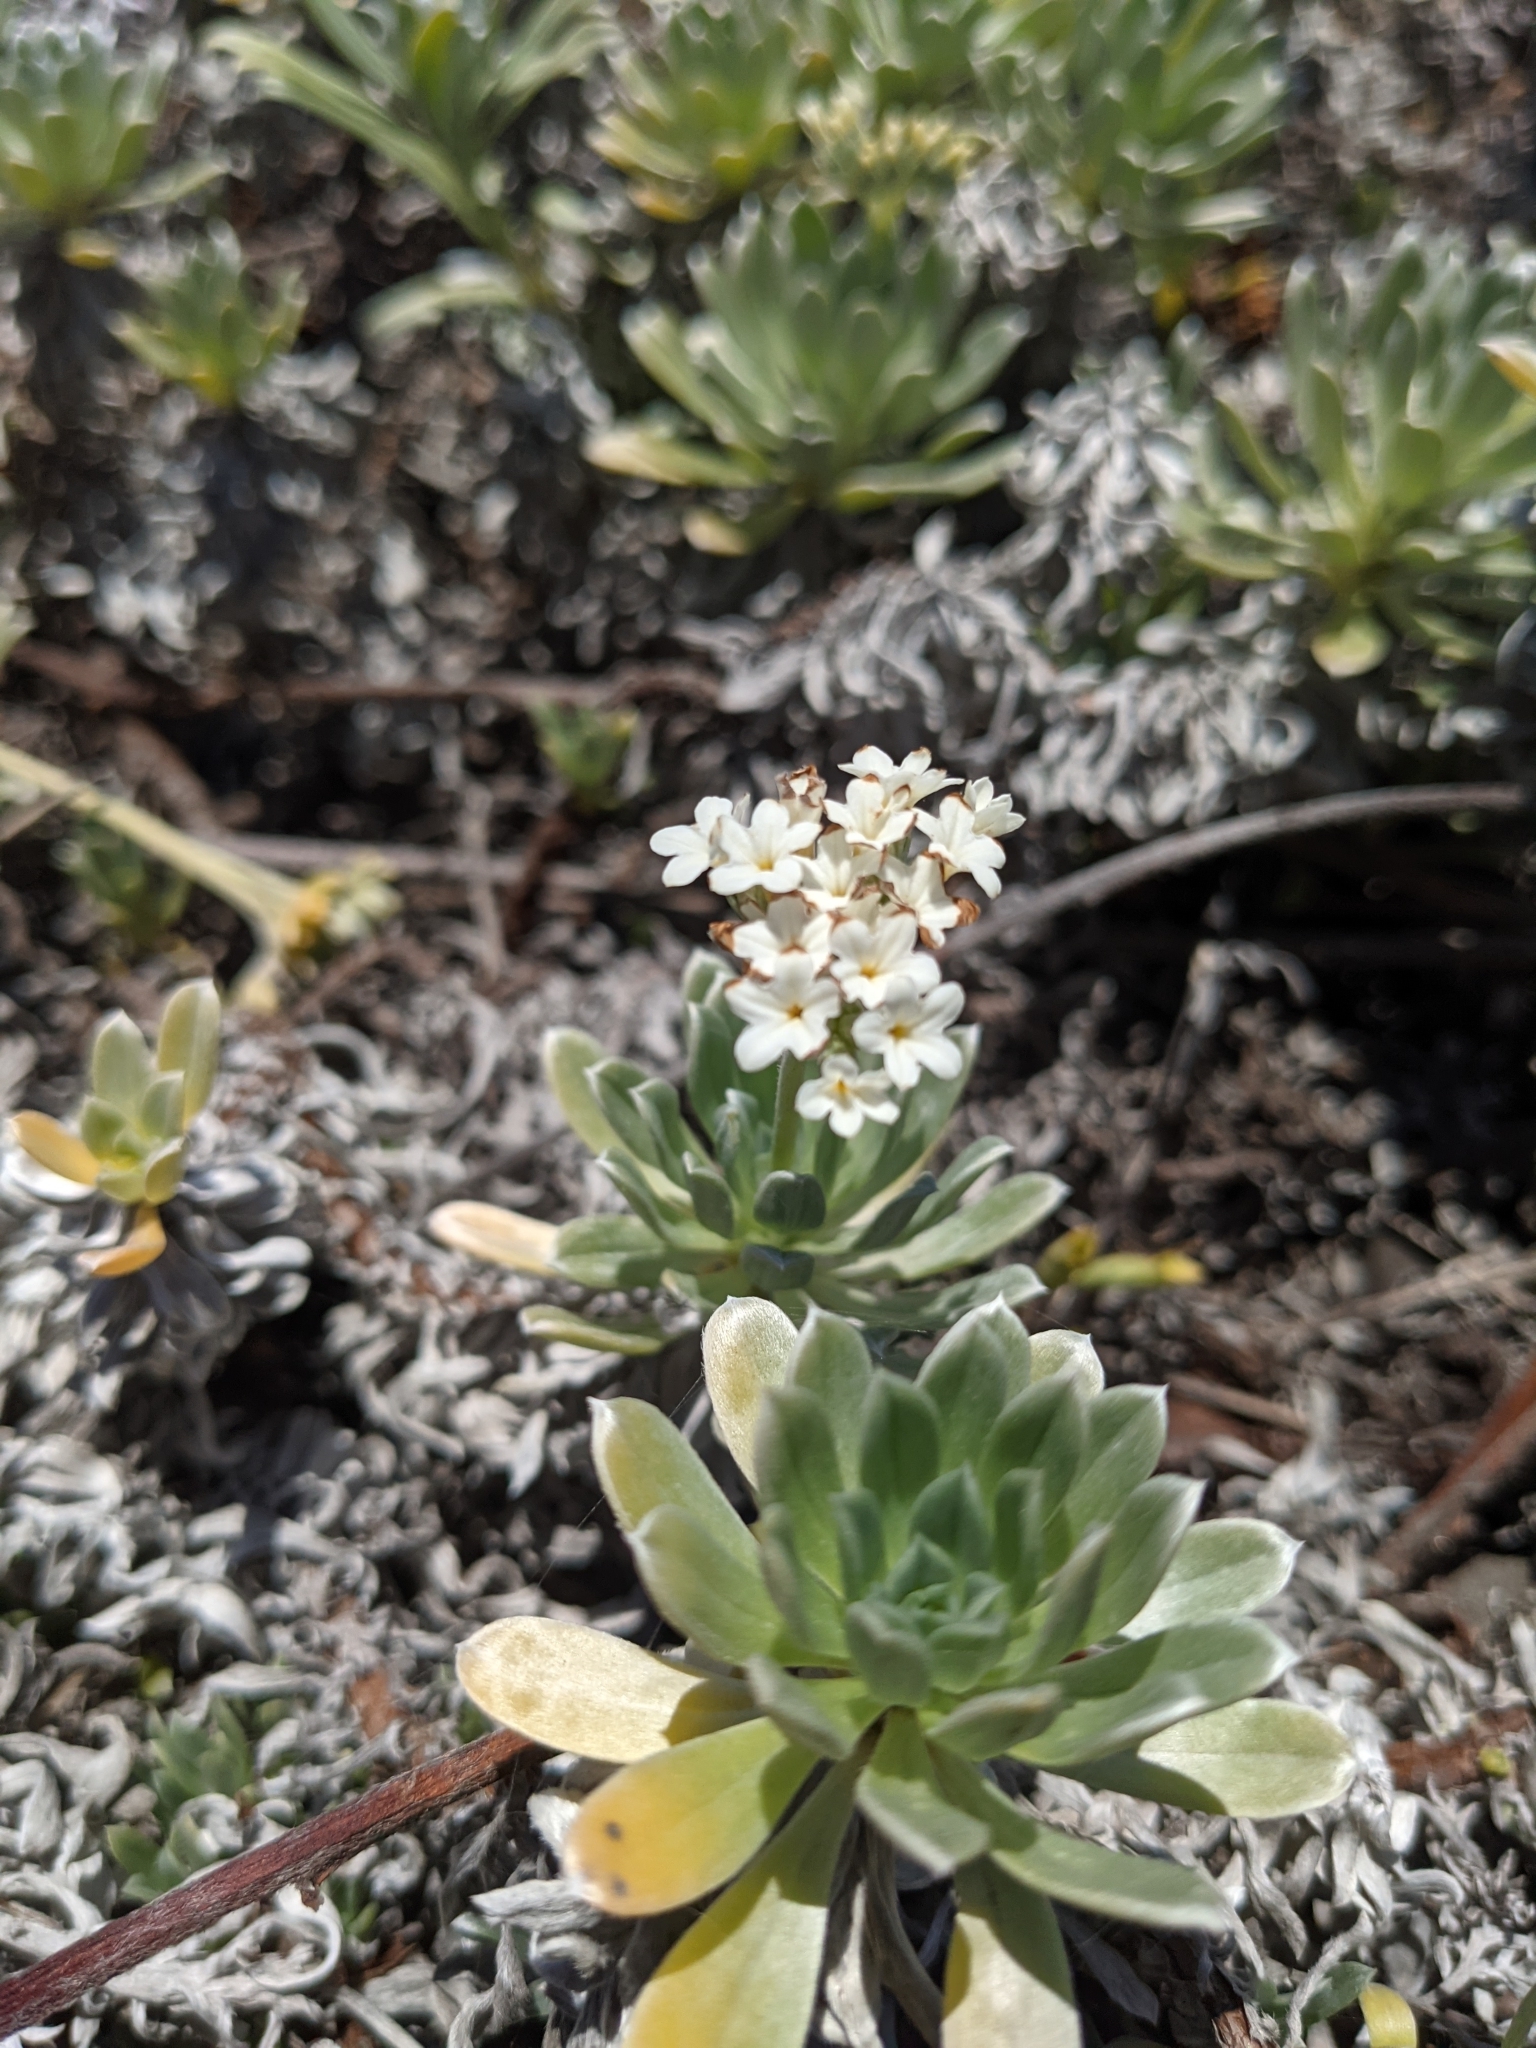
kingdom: Plantae
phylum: Tracheophyta
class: Magnoliopsida
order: Boraginales
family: Heliotropiaceae
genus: Heliotropium
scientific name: Heliotropium anomalum
